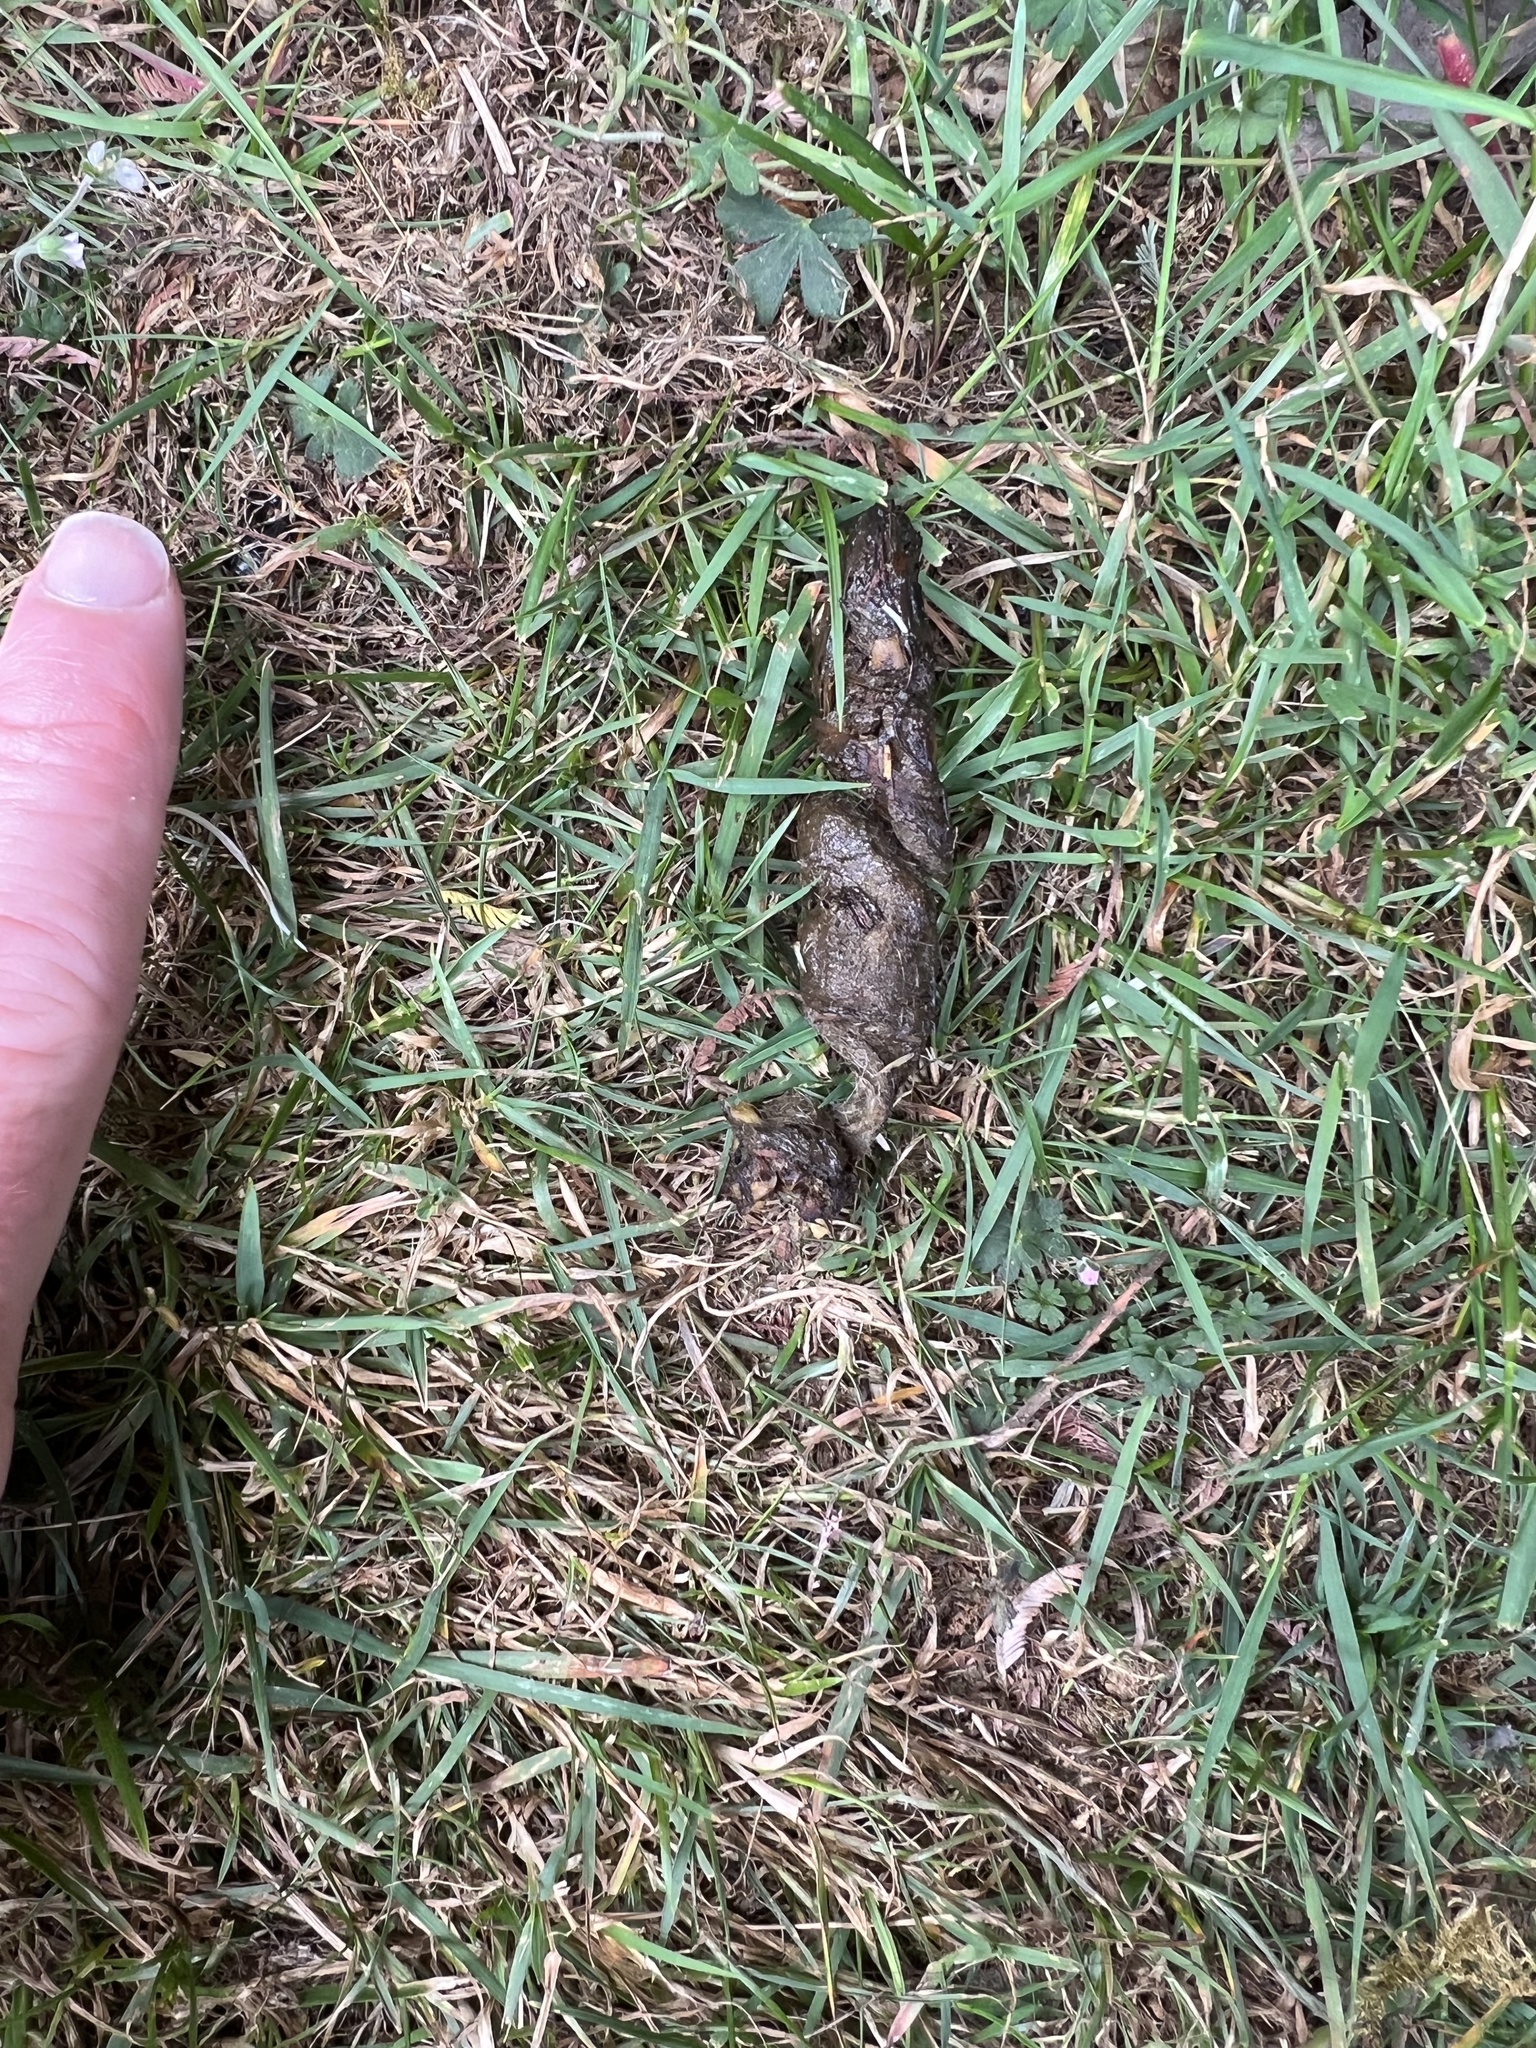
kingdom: Animalia
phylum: Chordata
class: Mammalia
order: Dasyuromorphia
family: Dasyuridae
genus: Dasyurus
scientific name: Dasyurus maculatus
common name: Tiger quoll
